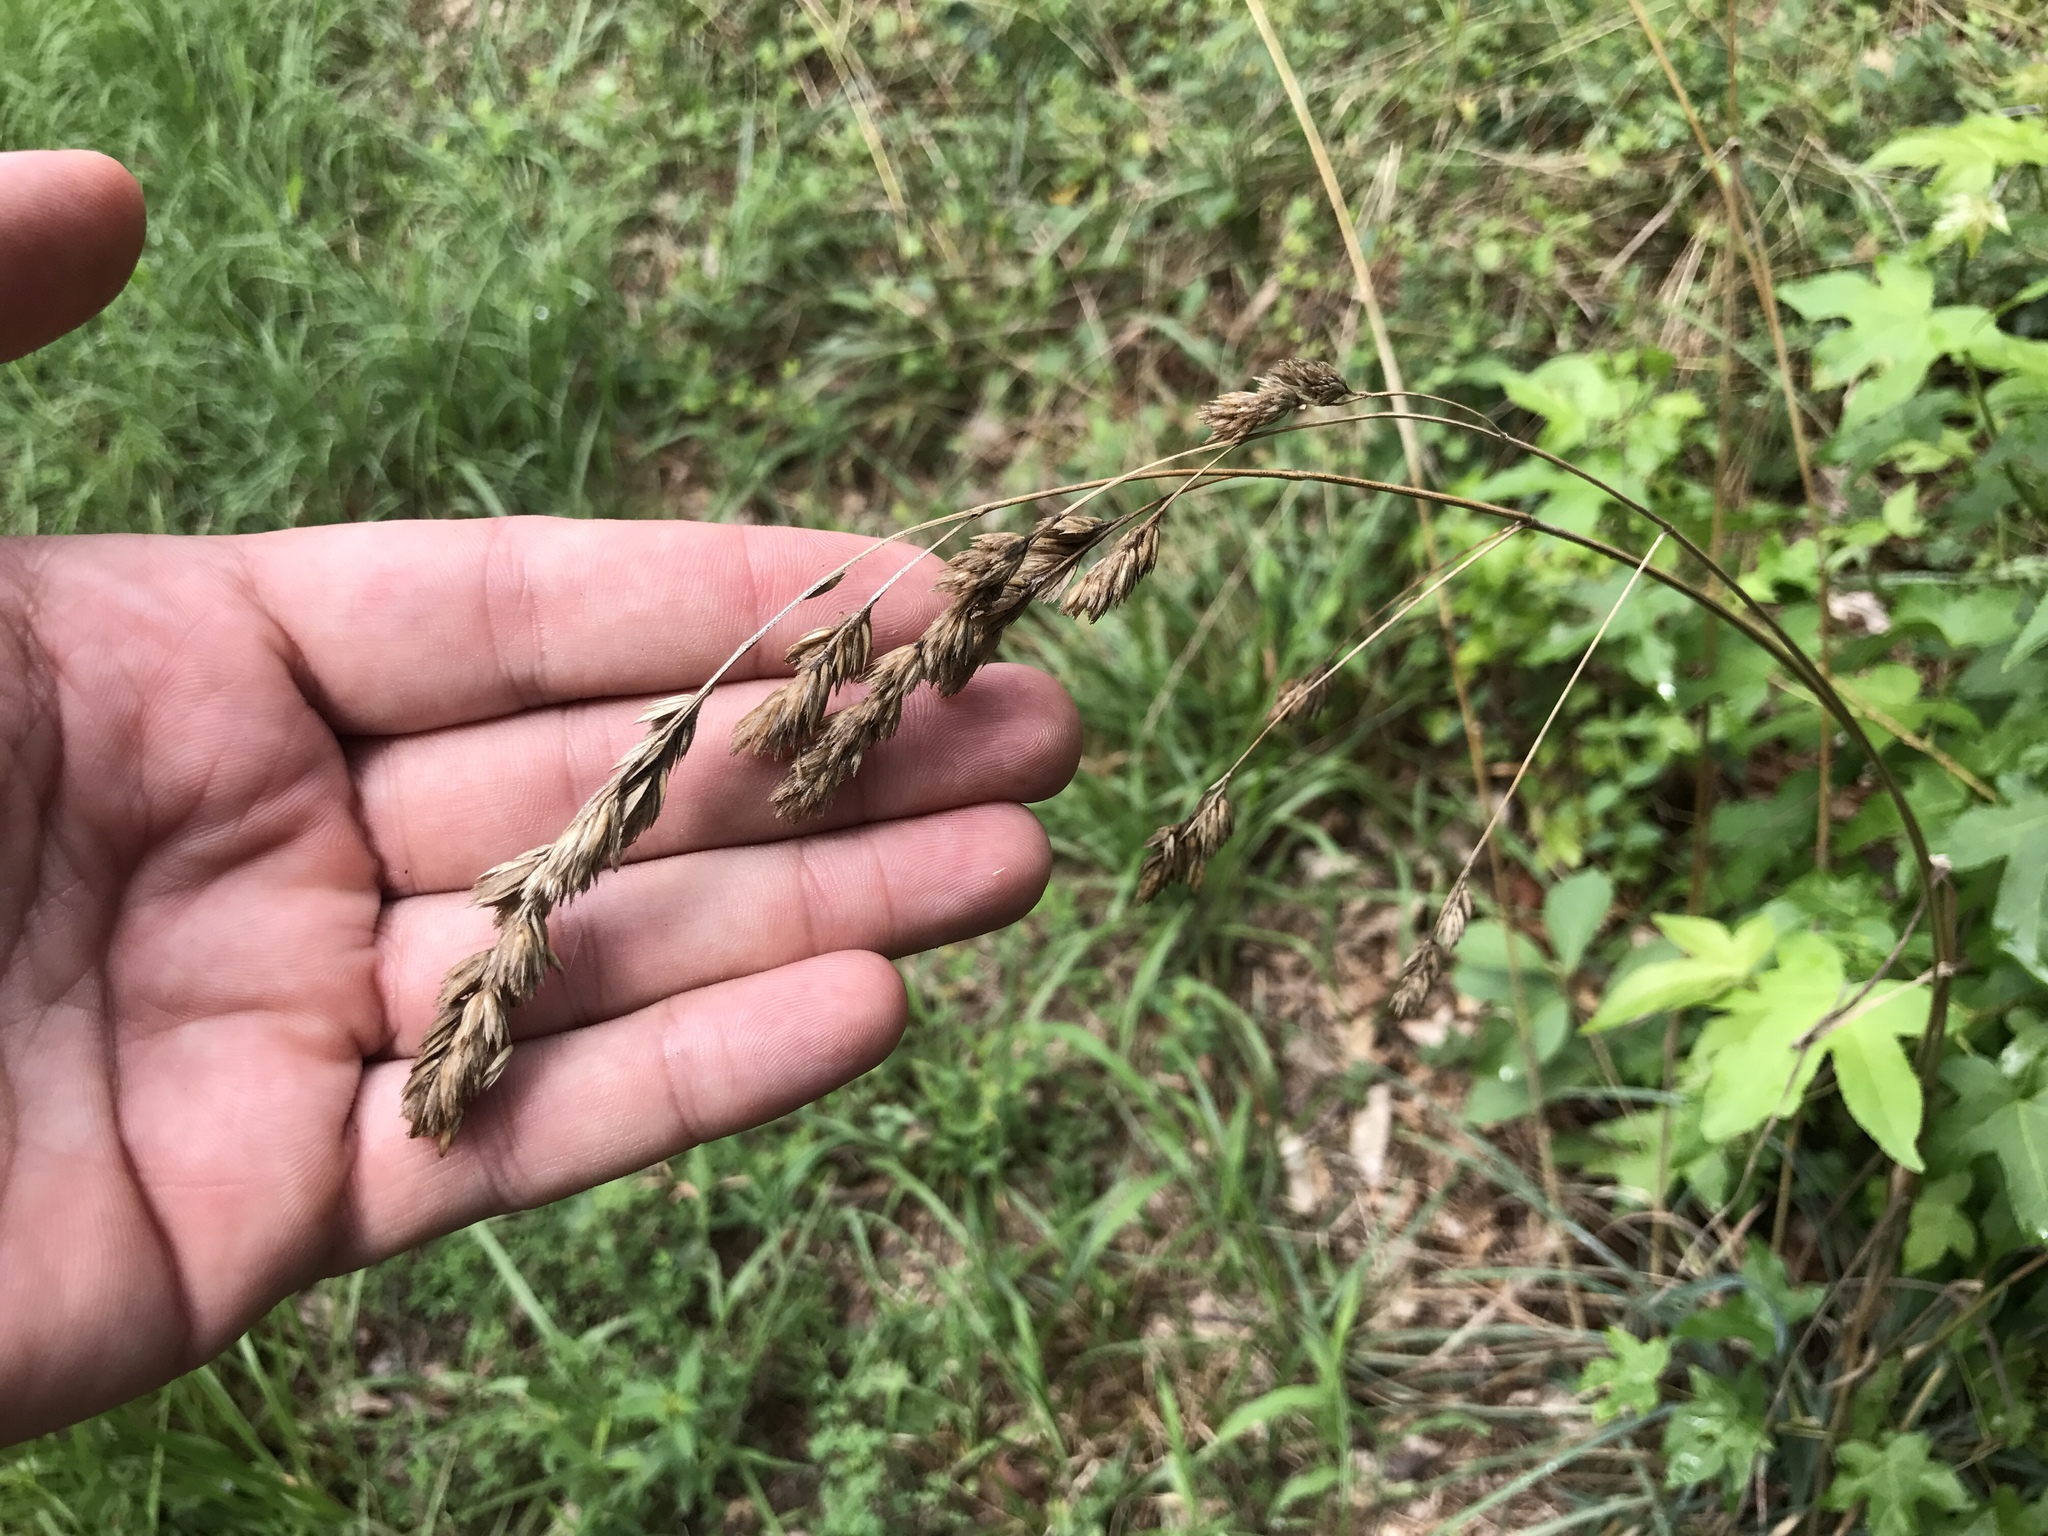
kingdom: Plantae
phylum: Tracheophyta
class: Liliopsida
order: Poales
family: Poaceae
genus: Dactylis
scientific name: Dactylis glomerata
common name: Orchardgrass
